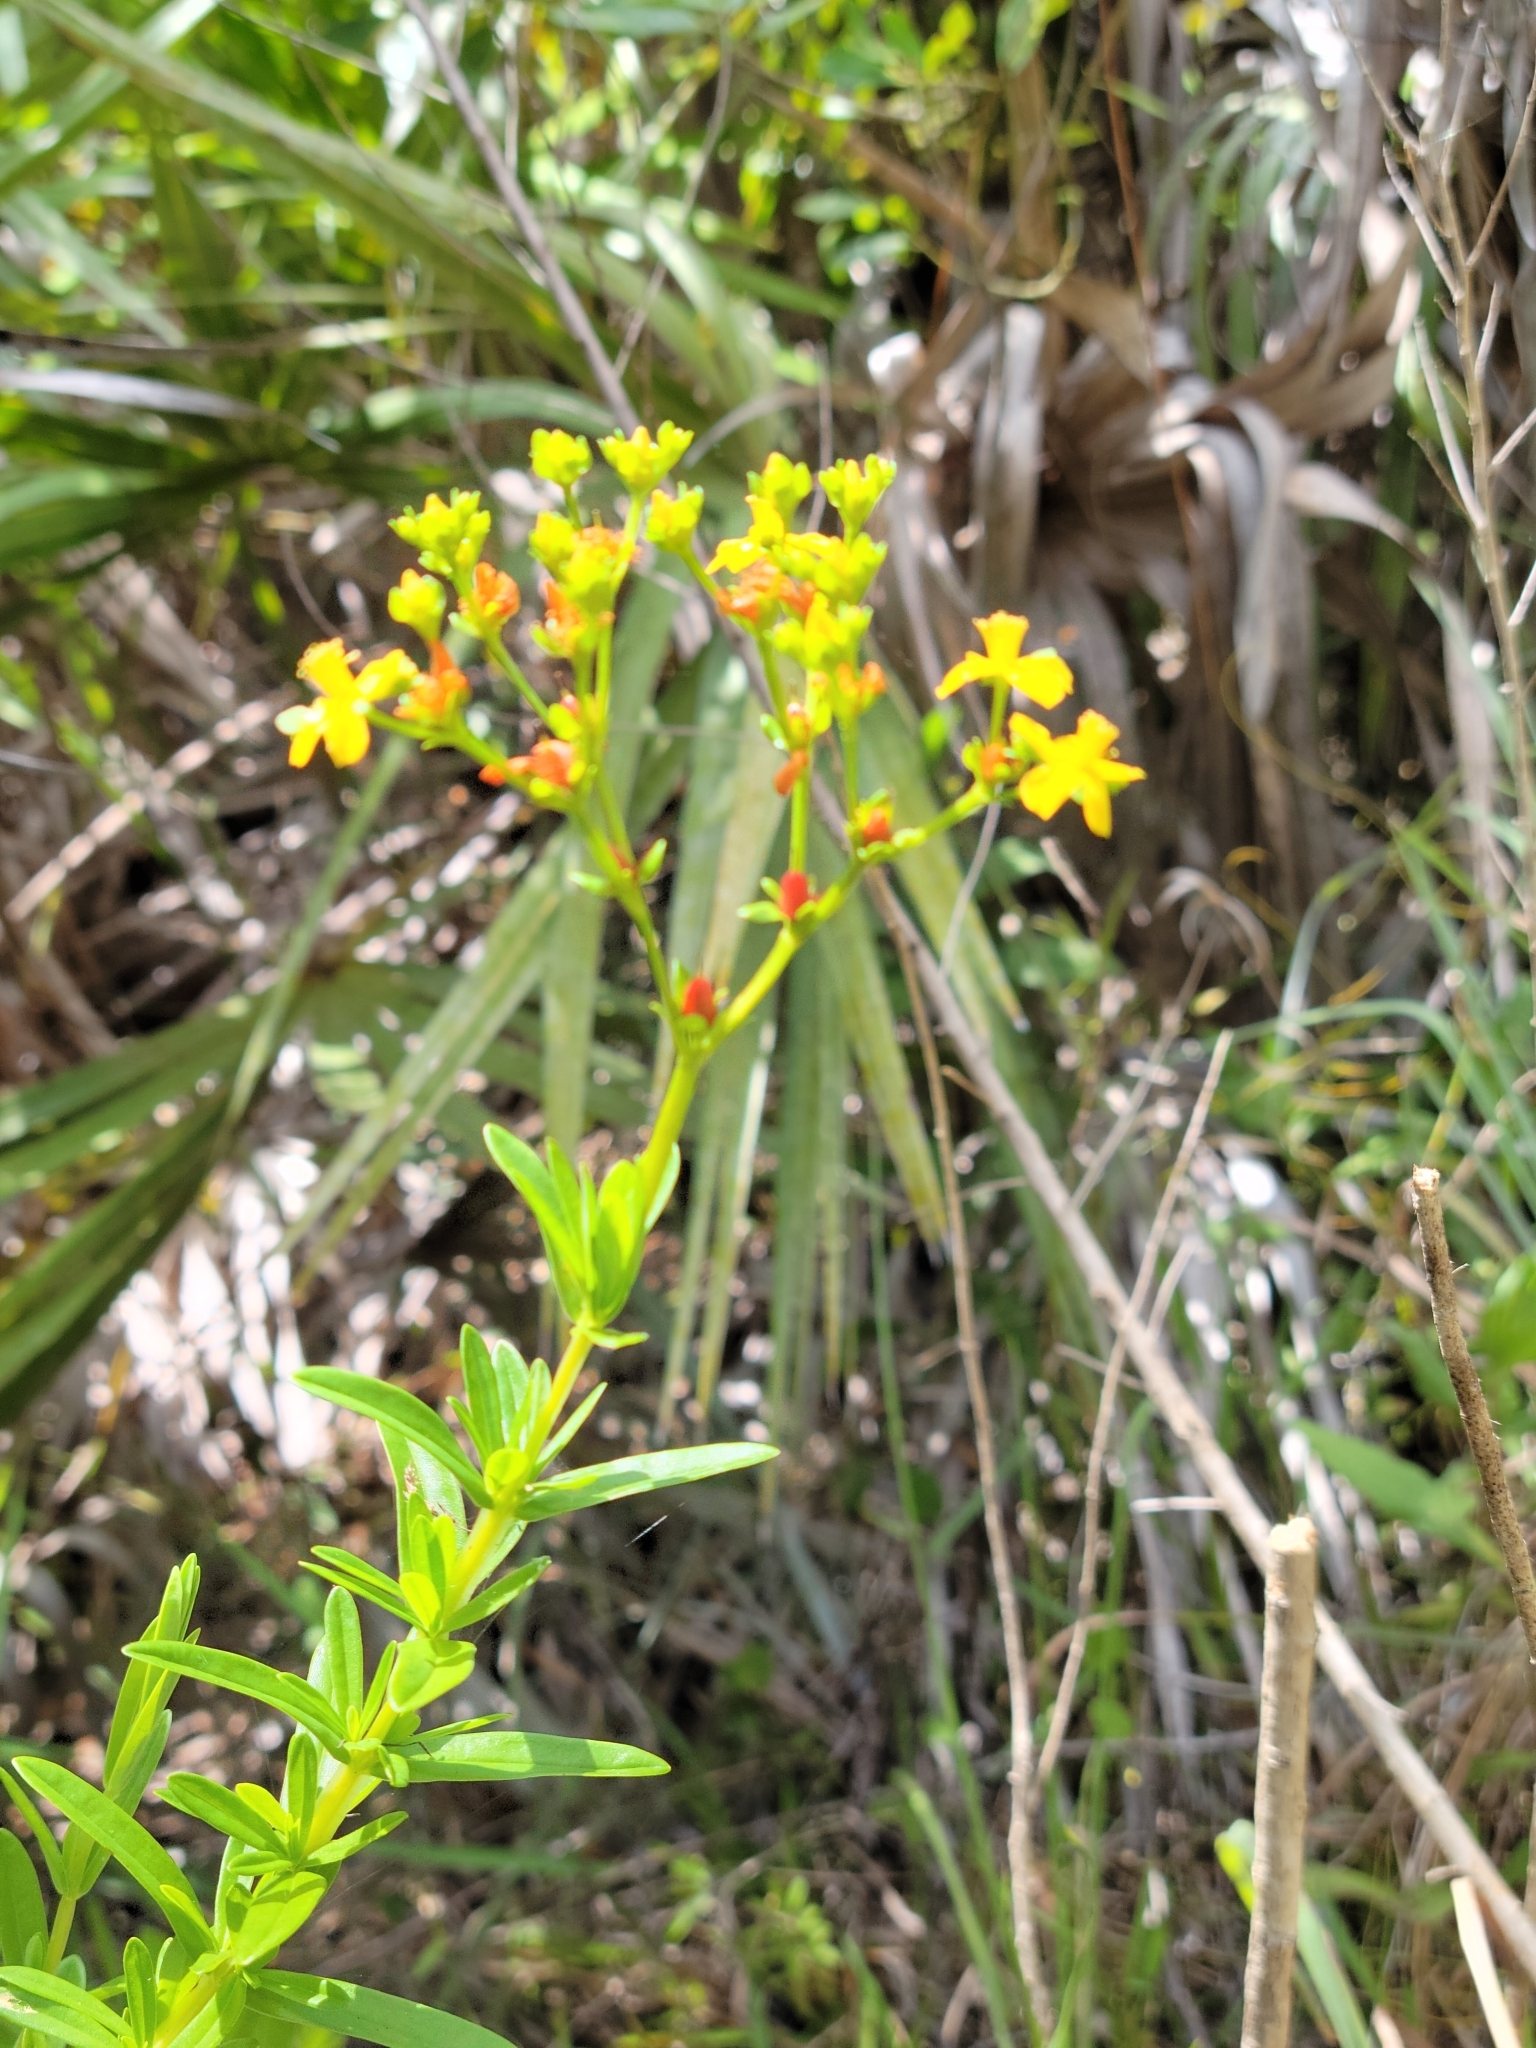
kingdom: Plantae
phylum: Tracheophyta
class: Magnoliopsida
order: Malpighiales
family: Hypericaceae
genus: Hypericum
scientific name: Hypericum cistifolium
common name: Round-pod st. john's-wort
